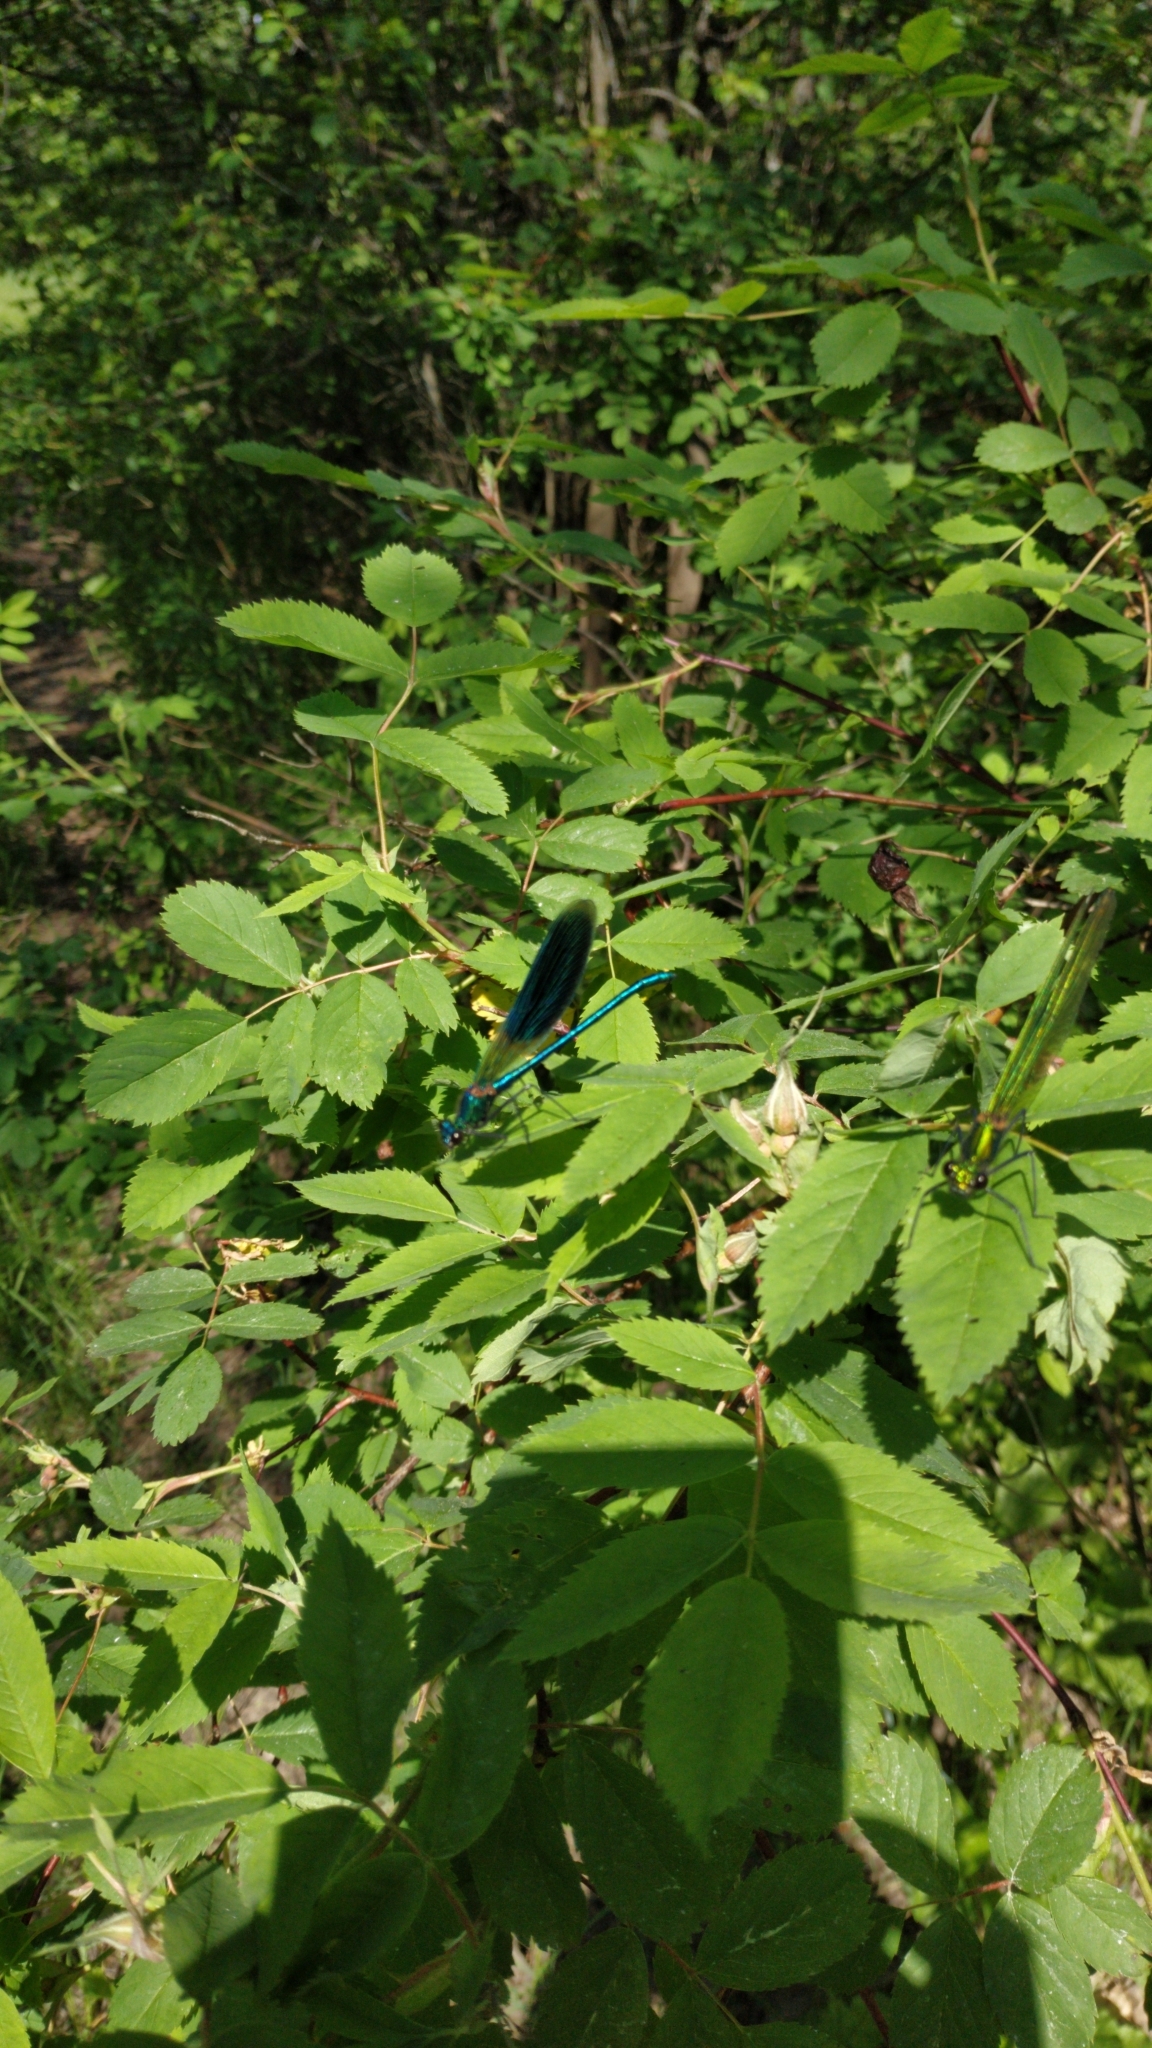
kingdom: Animalia
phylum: Arthropoda
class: Insecta
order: Odonata
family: Calopterygidae
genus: Calopteryx
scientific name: Calopteryx splendens
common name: Banded demoiselle
